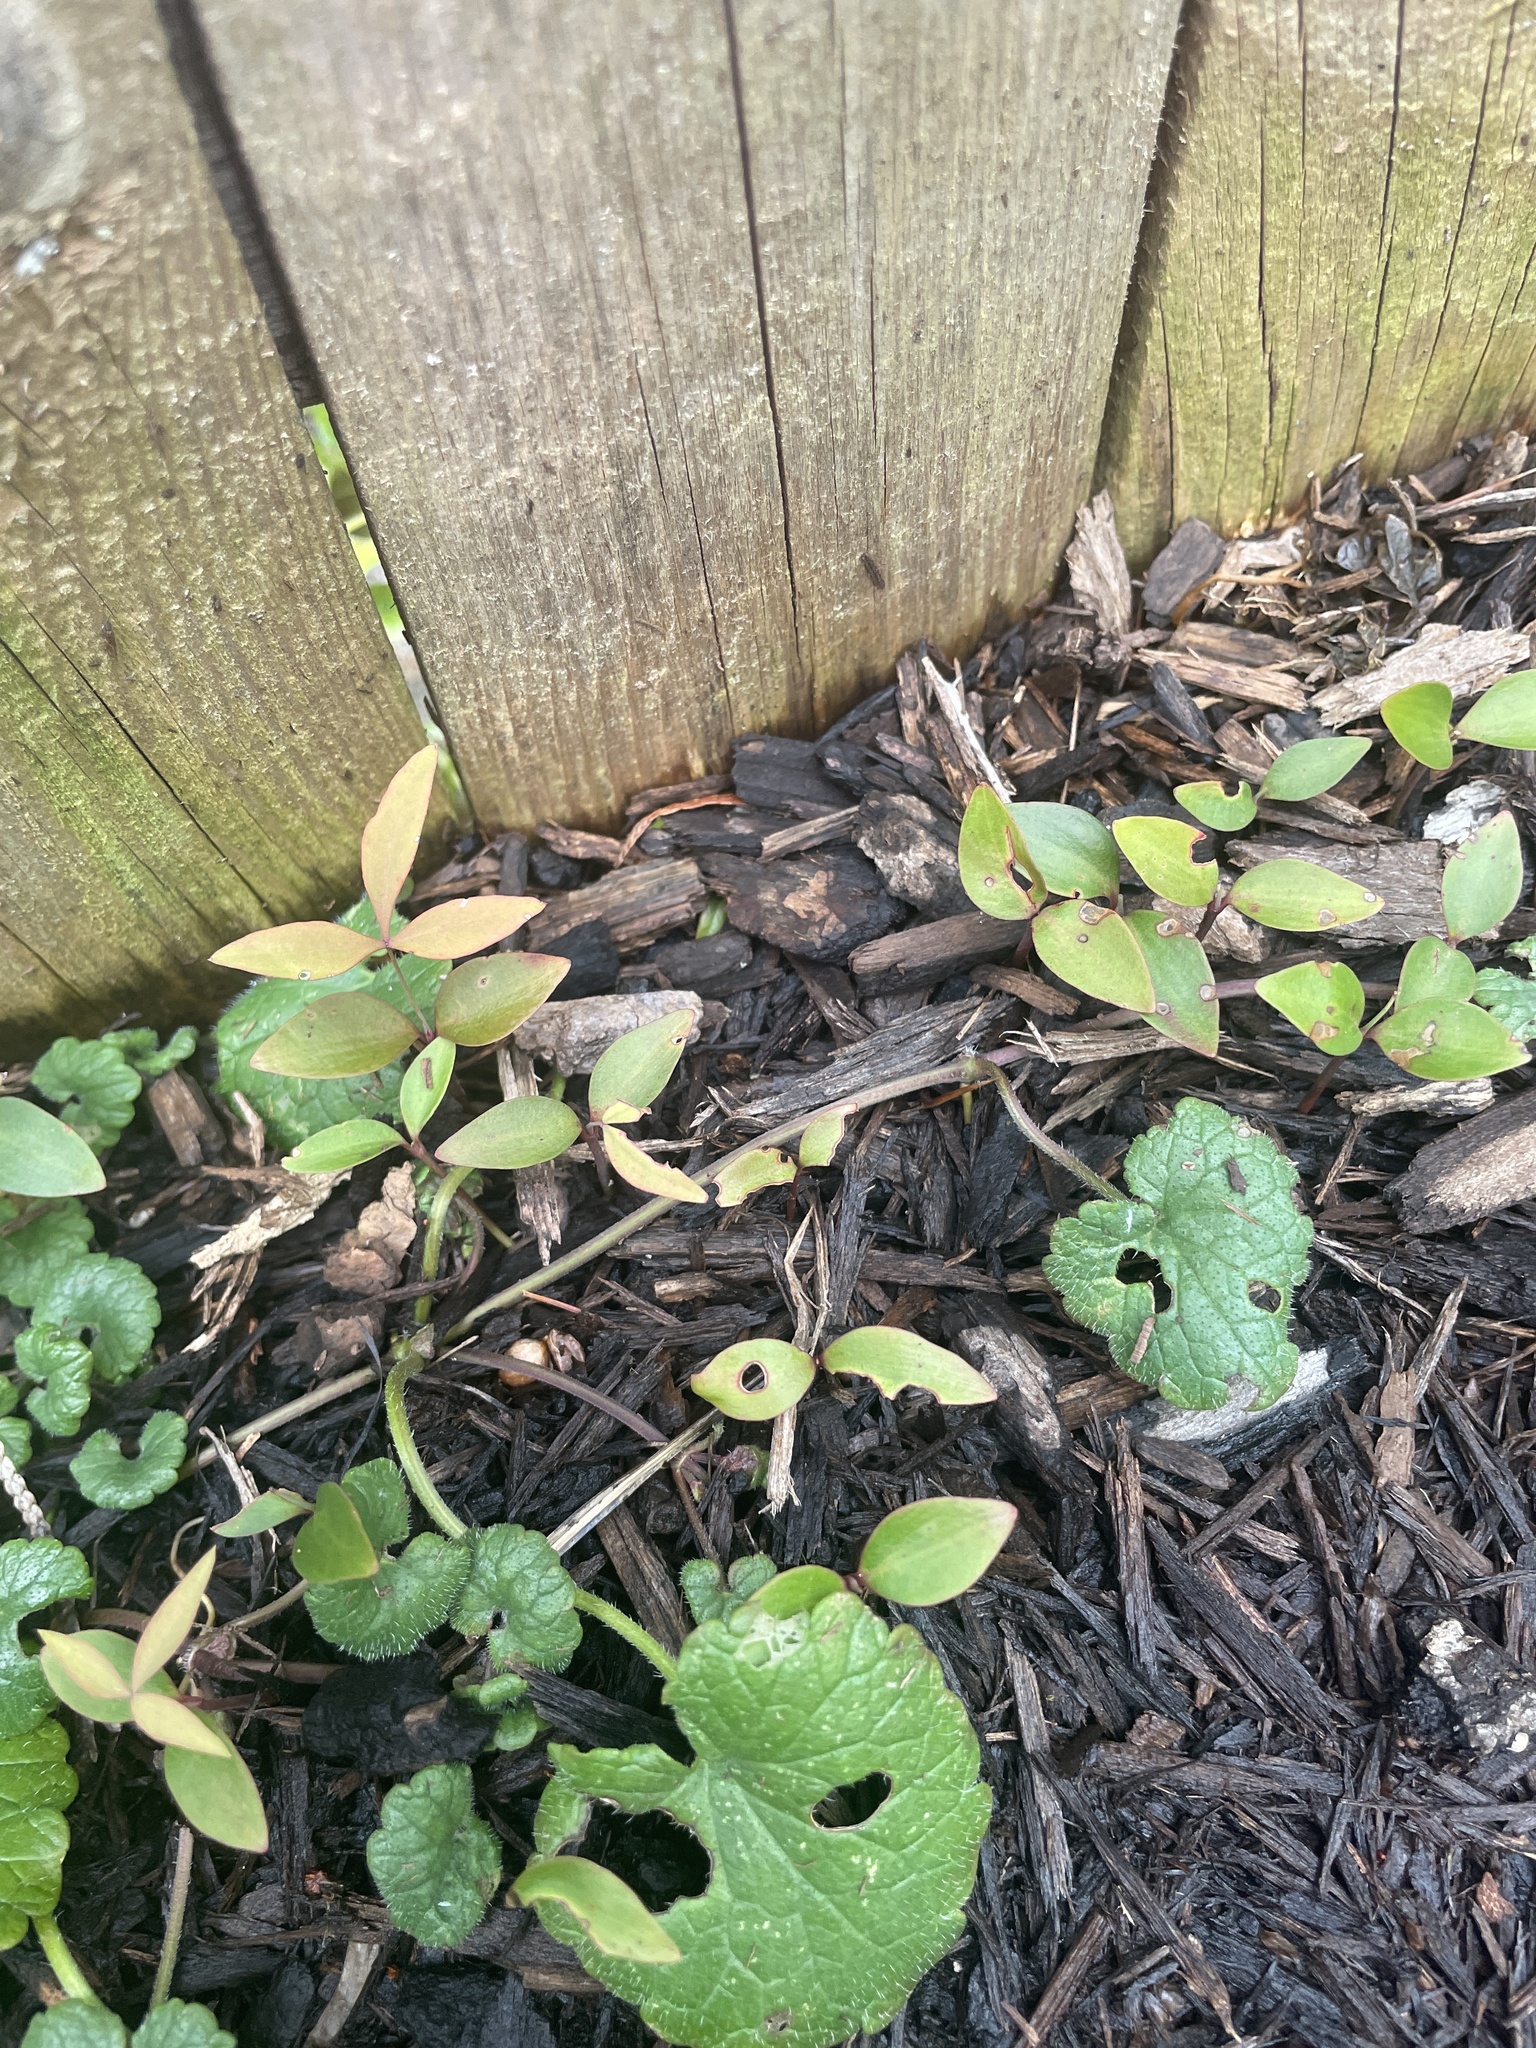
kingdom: Plantae
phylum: Tracheophyta
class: Magnoliopsida
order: Ranunculales
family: Berberidaceae
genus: Nandina
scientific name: Nandina domestica
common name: Sacred bamboo
